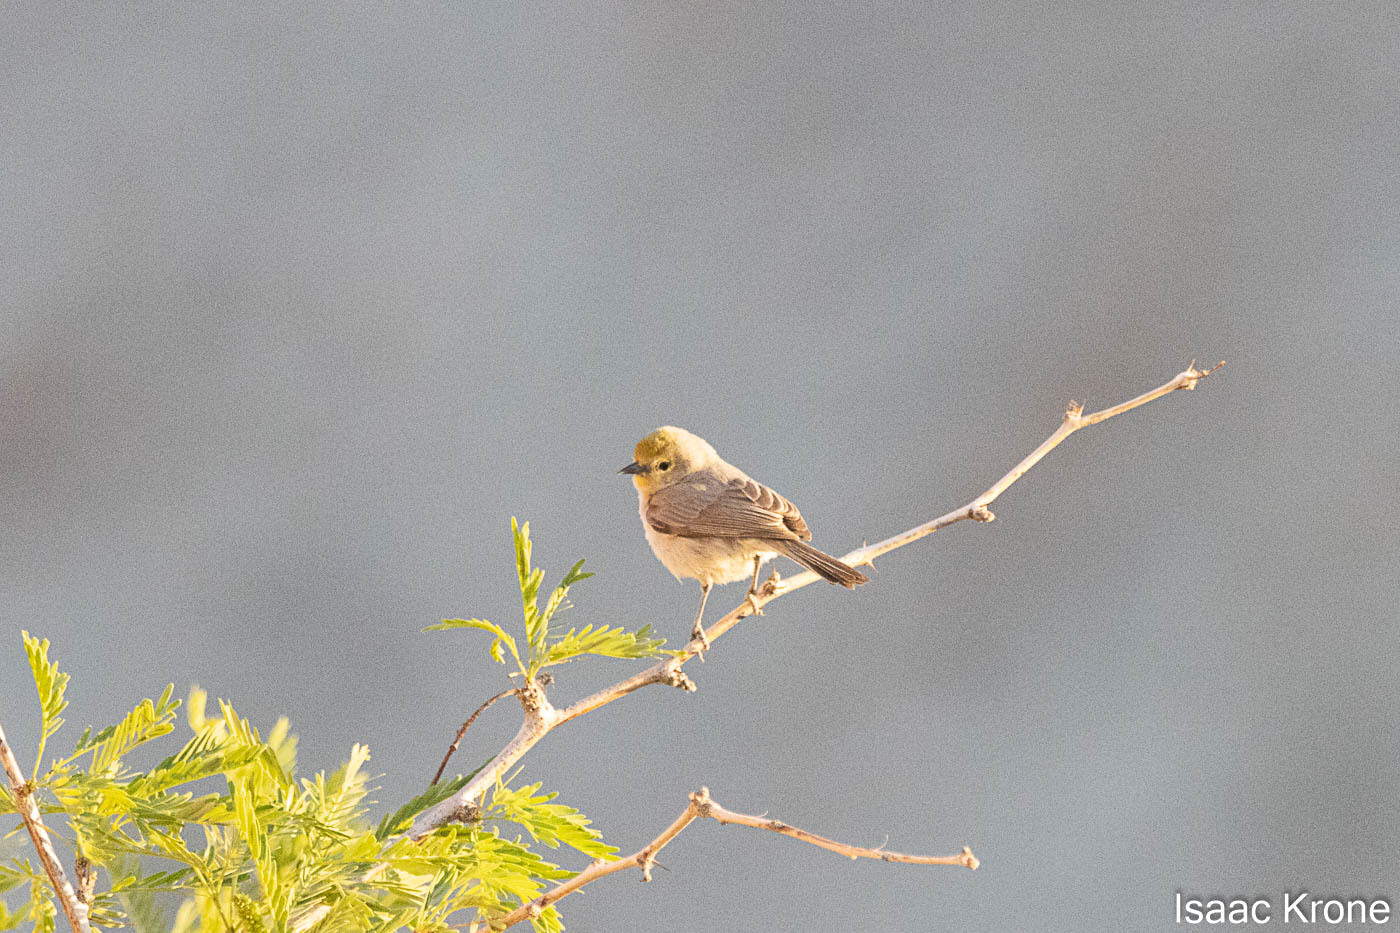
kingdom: Animalia
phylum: Chordata
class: Aves
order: Passeriformes
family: Remizidae
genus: Auriparus
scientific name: Auriparus flaviceps
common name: Verdin
